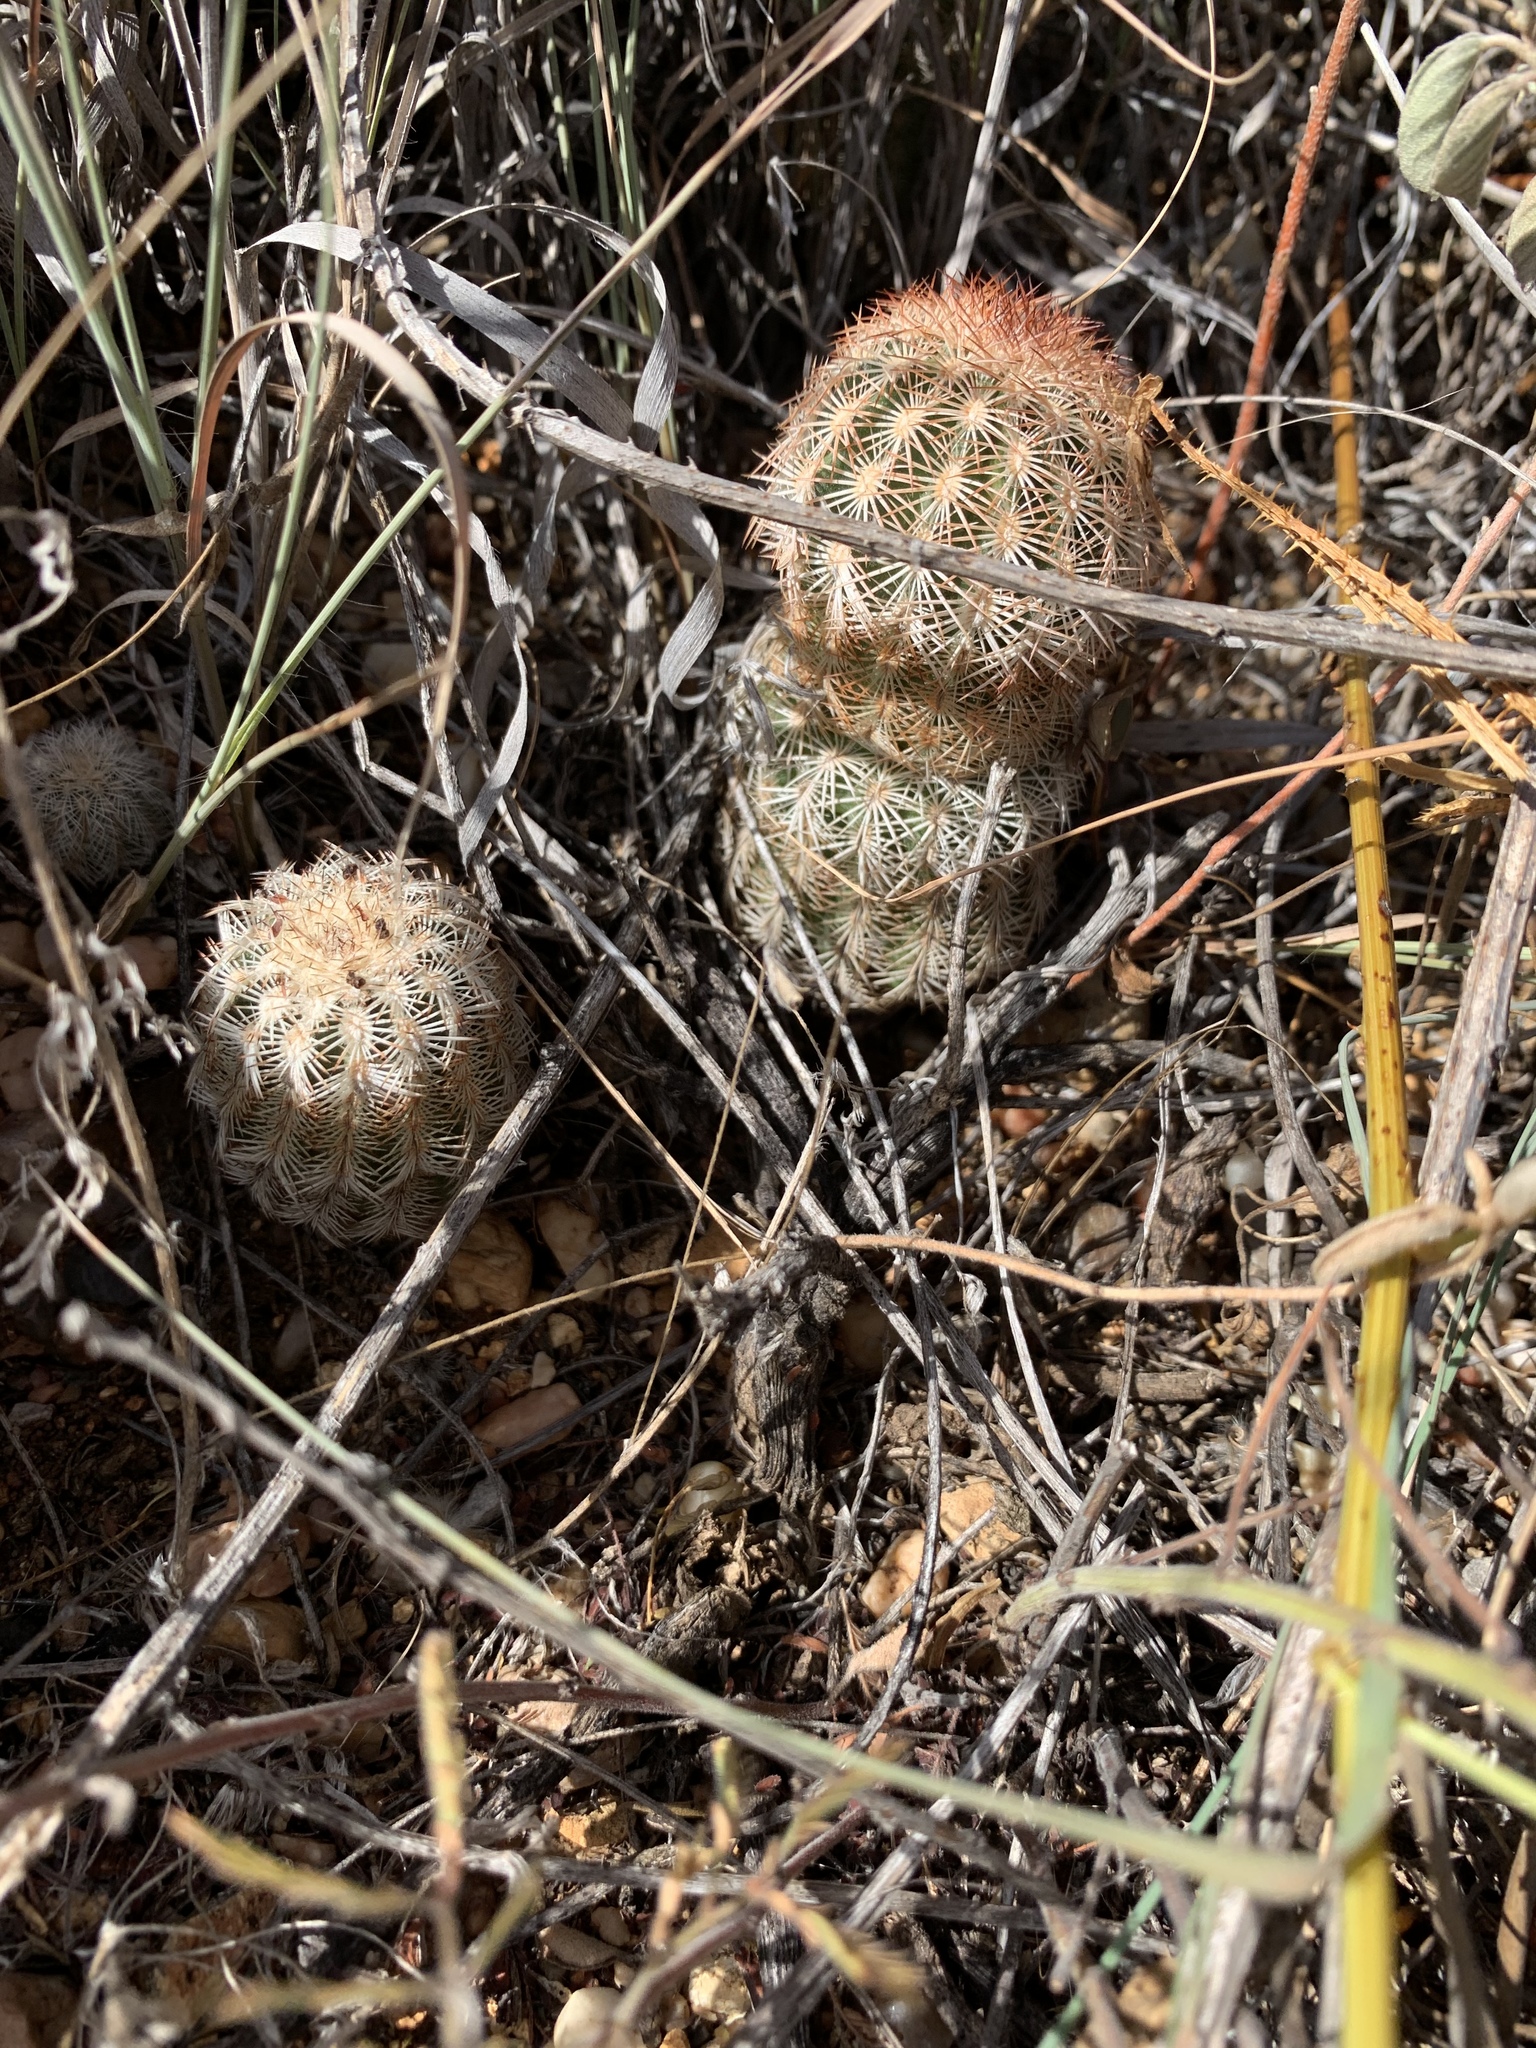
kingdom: Plantae
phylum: Tracheophyta
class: Magnoliopsida
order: Caryophyllales
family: Cactaceae
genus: Echinocereus
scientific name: Echinocereus reichenbachii
